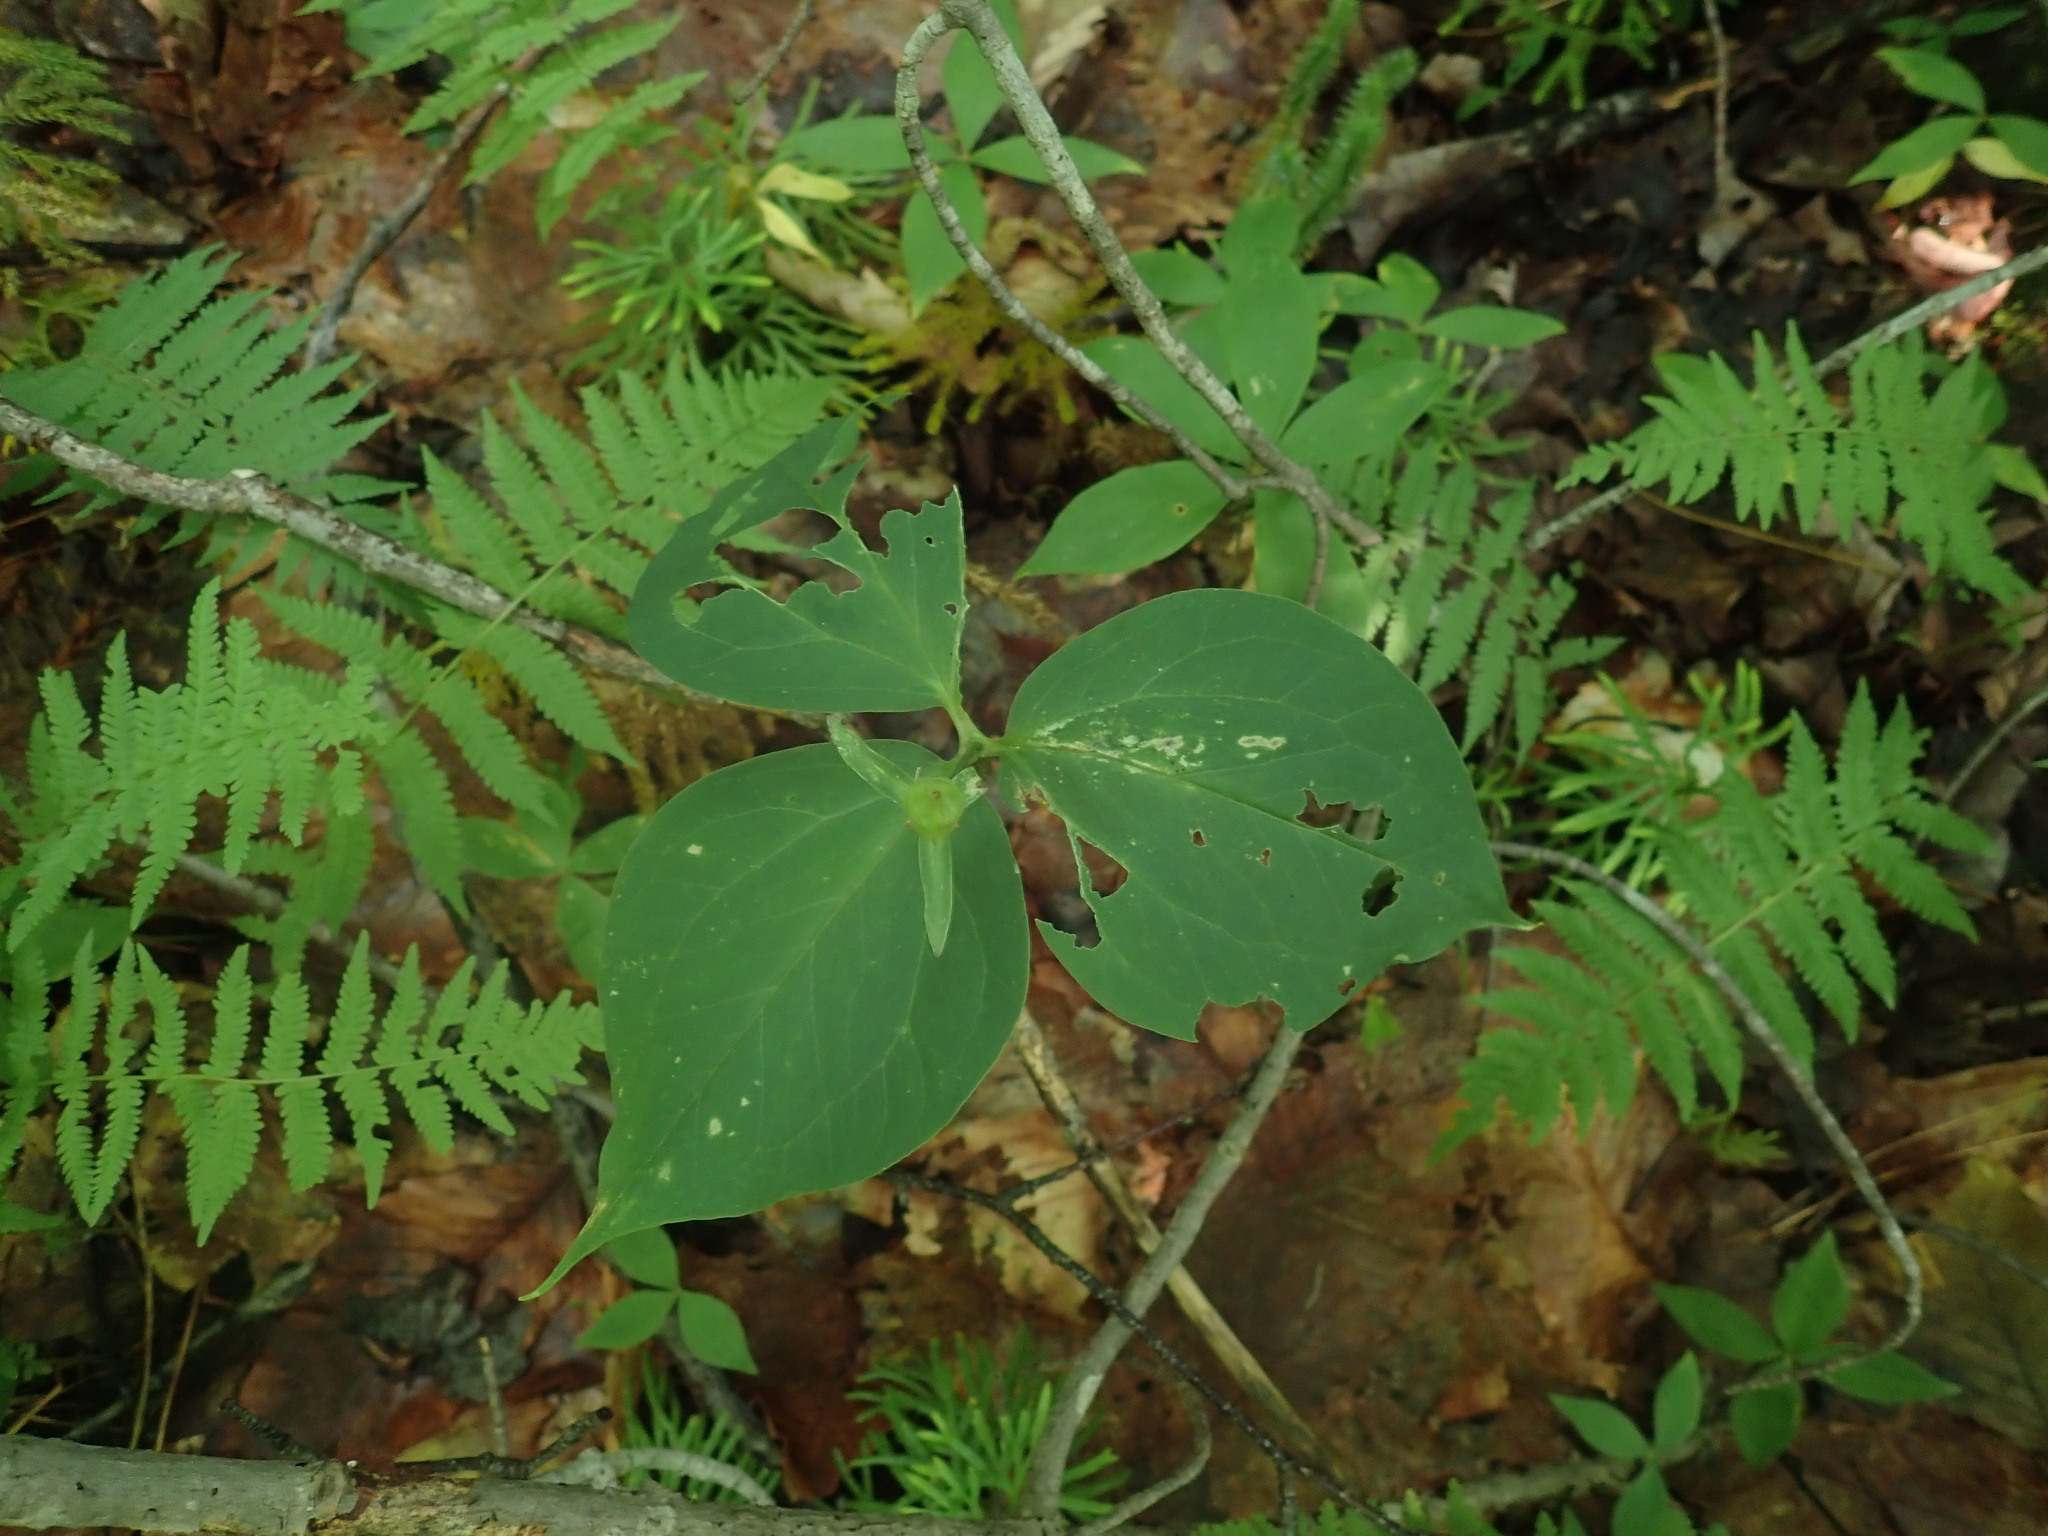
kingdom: Plantae
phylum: Tracheophyta
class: Liliopsida
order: Liliales
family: Melanthiaceae
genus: Trillium
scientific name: Trillium undulatum
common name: Paint trillium
